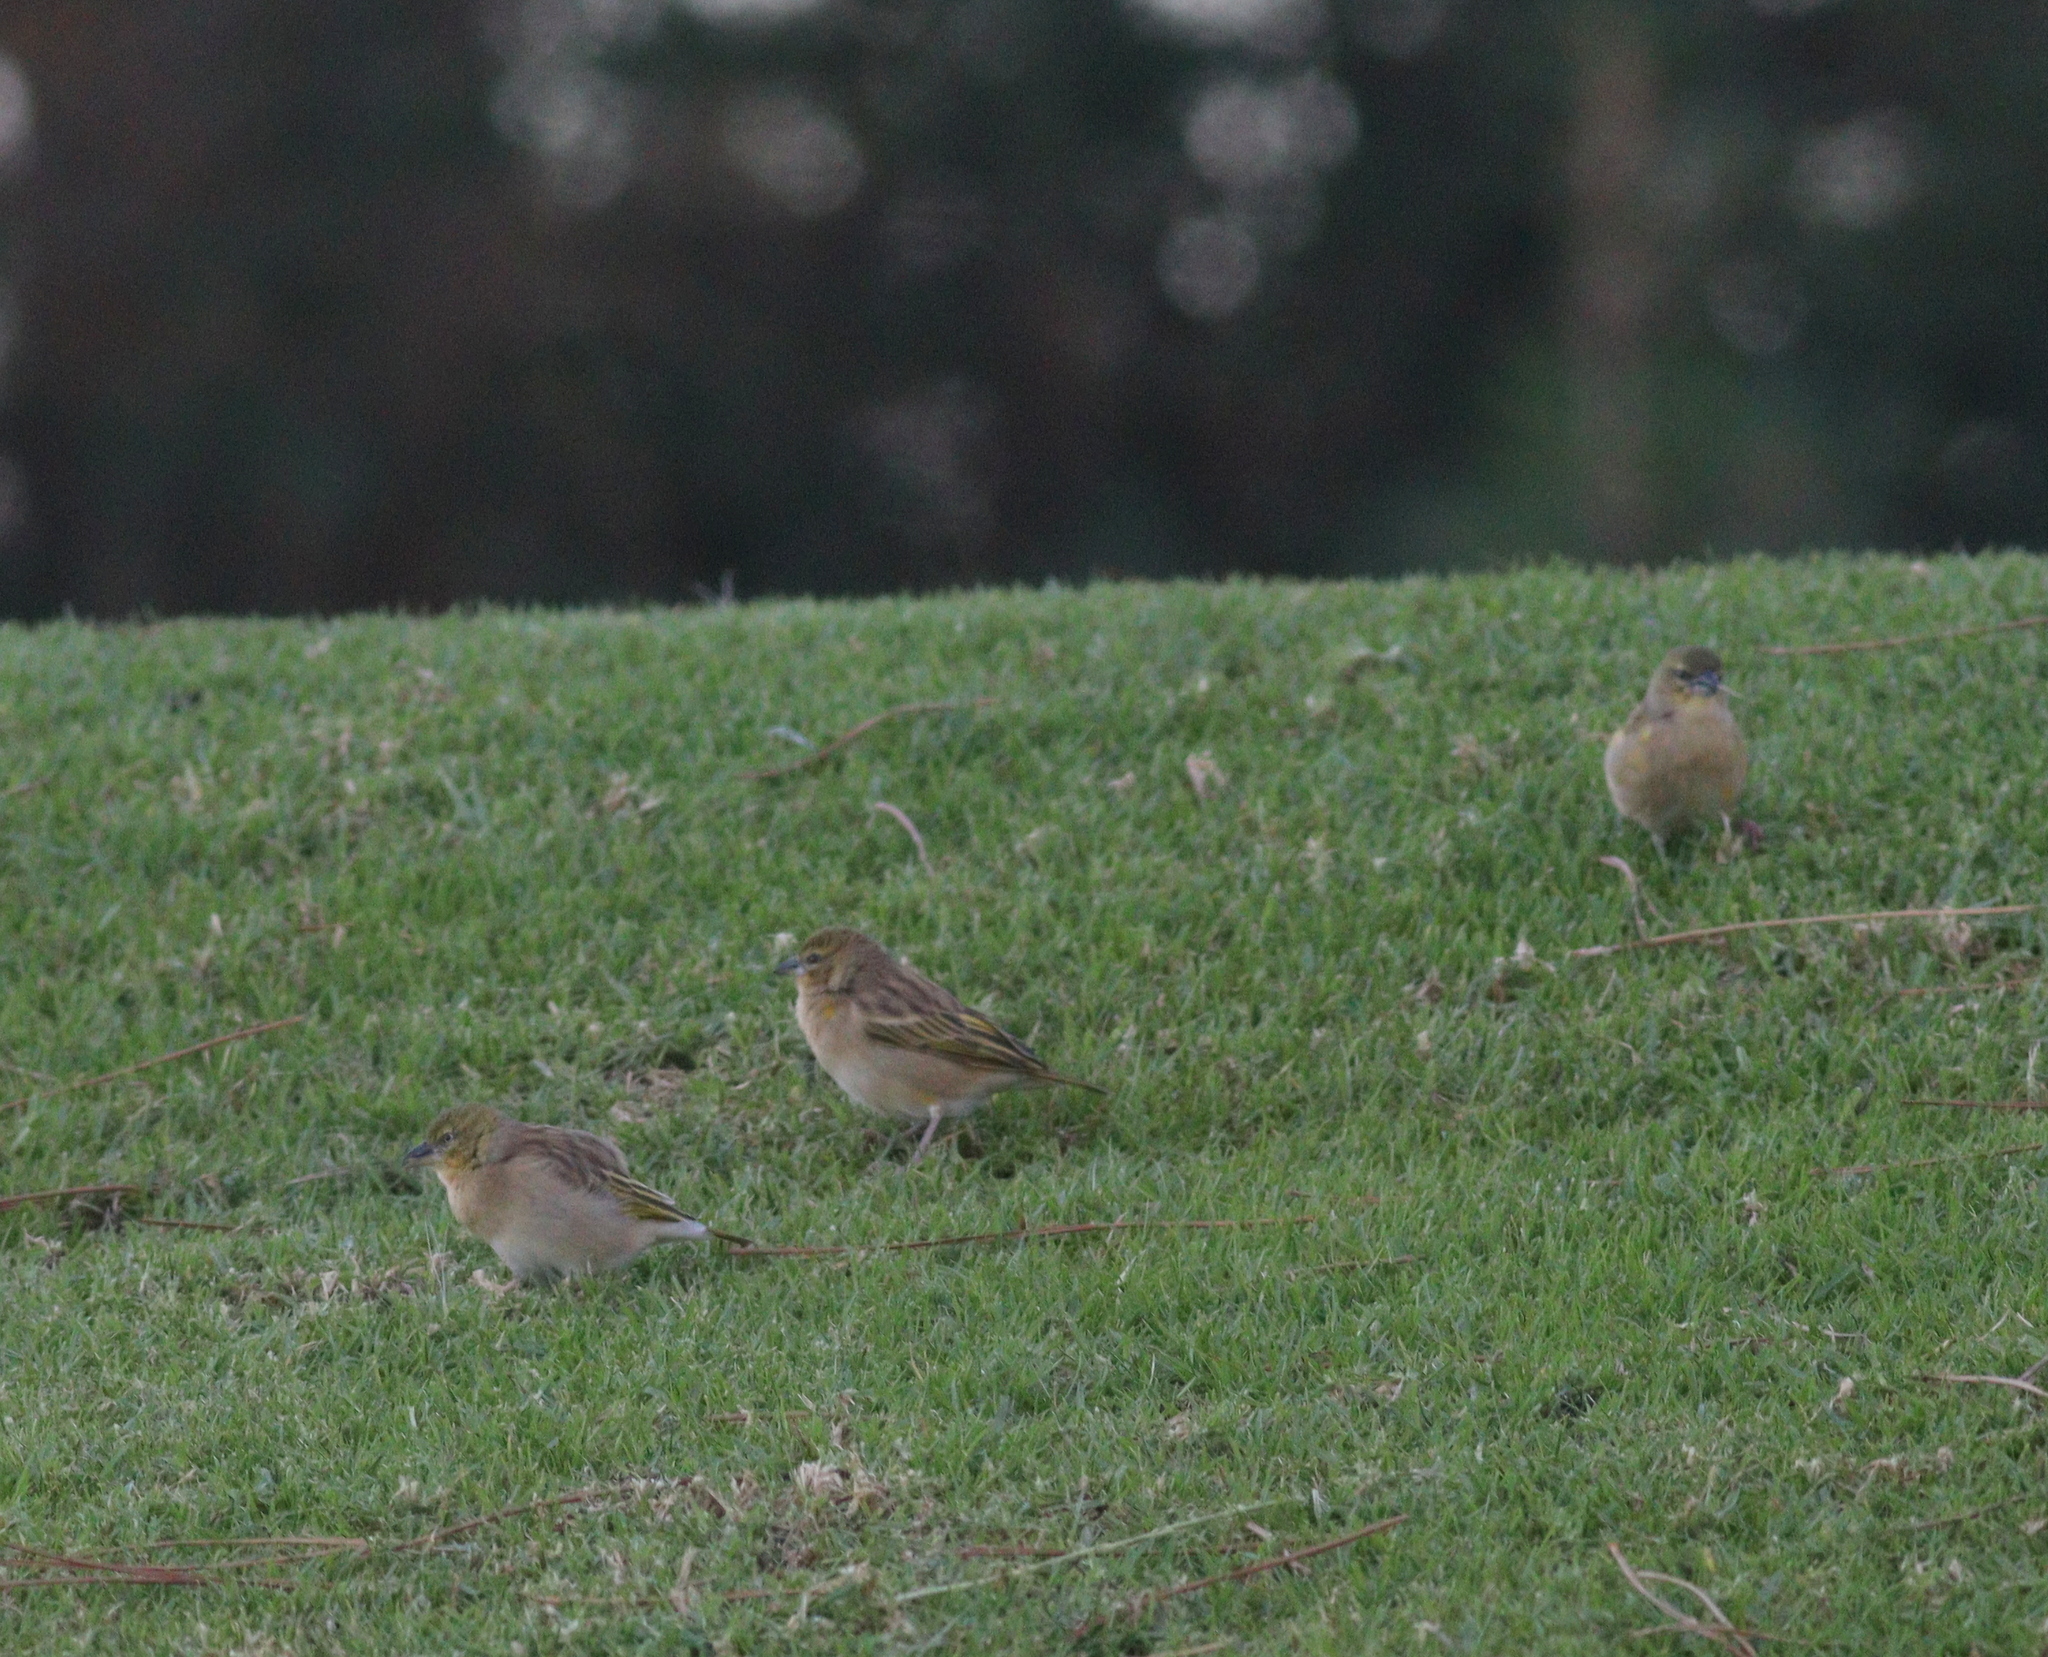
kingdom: Animalia
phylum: Chordata
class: Aves
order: Passeriformes
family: Ploceidae
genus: Ploceus
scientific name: Ploceus melanocephalus
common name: Black-headed weaver
